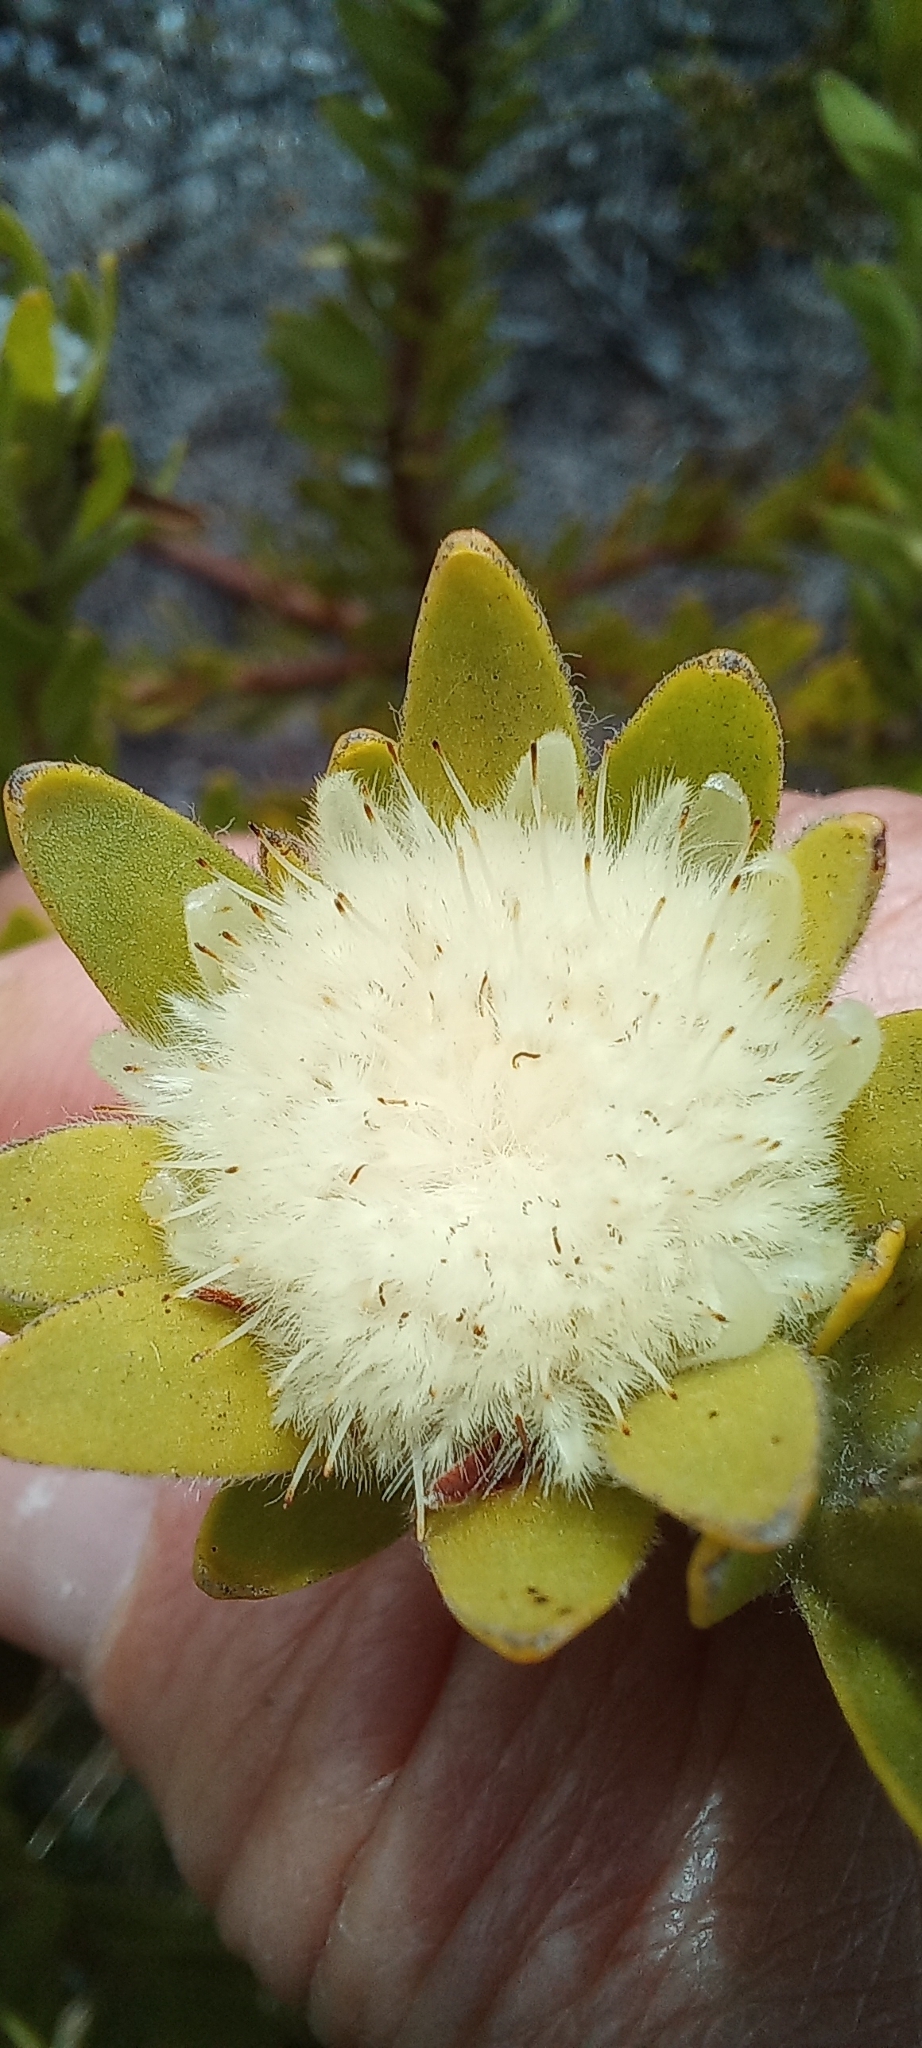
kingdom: Plantae
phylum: Tracheophyta
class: Magnoliopsida
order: Proteales
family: Proteaceae
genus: Diastella
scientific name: Diastella thymelaeoides
